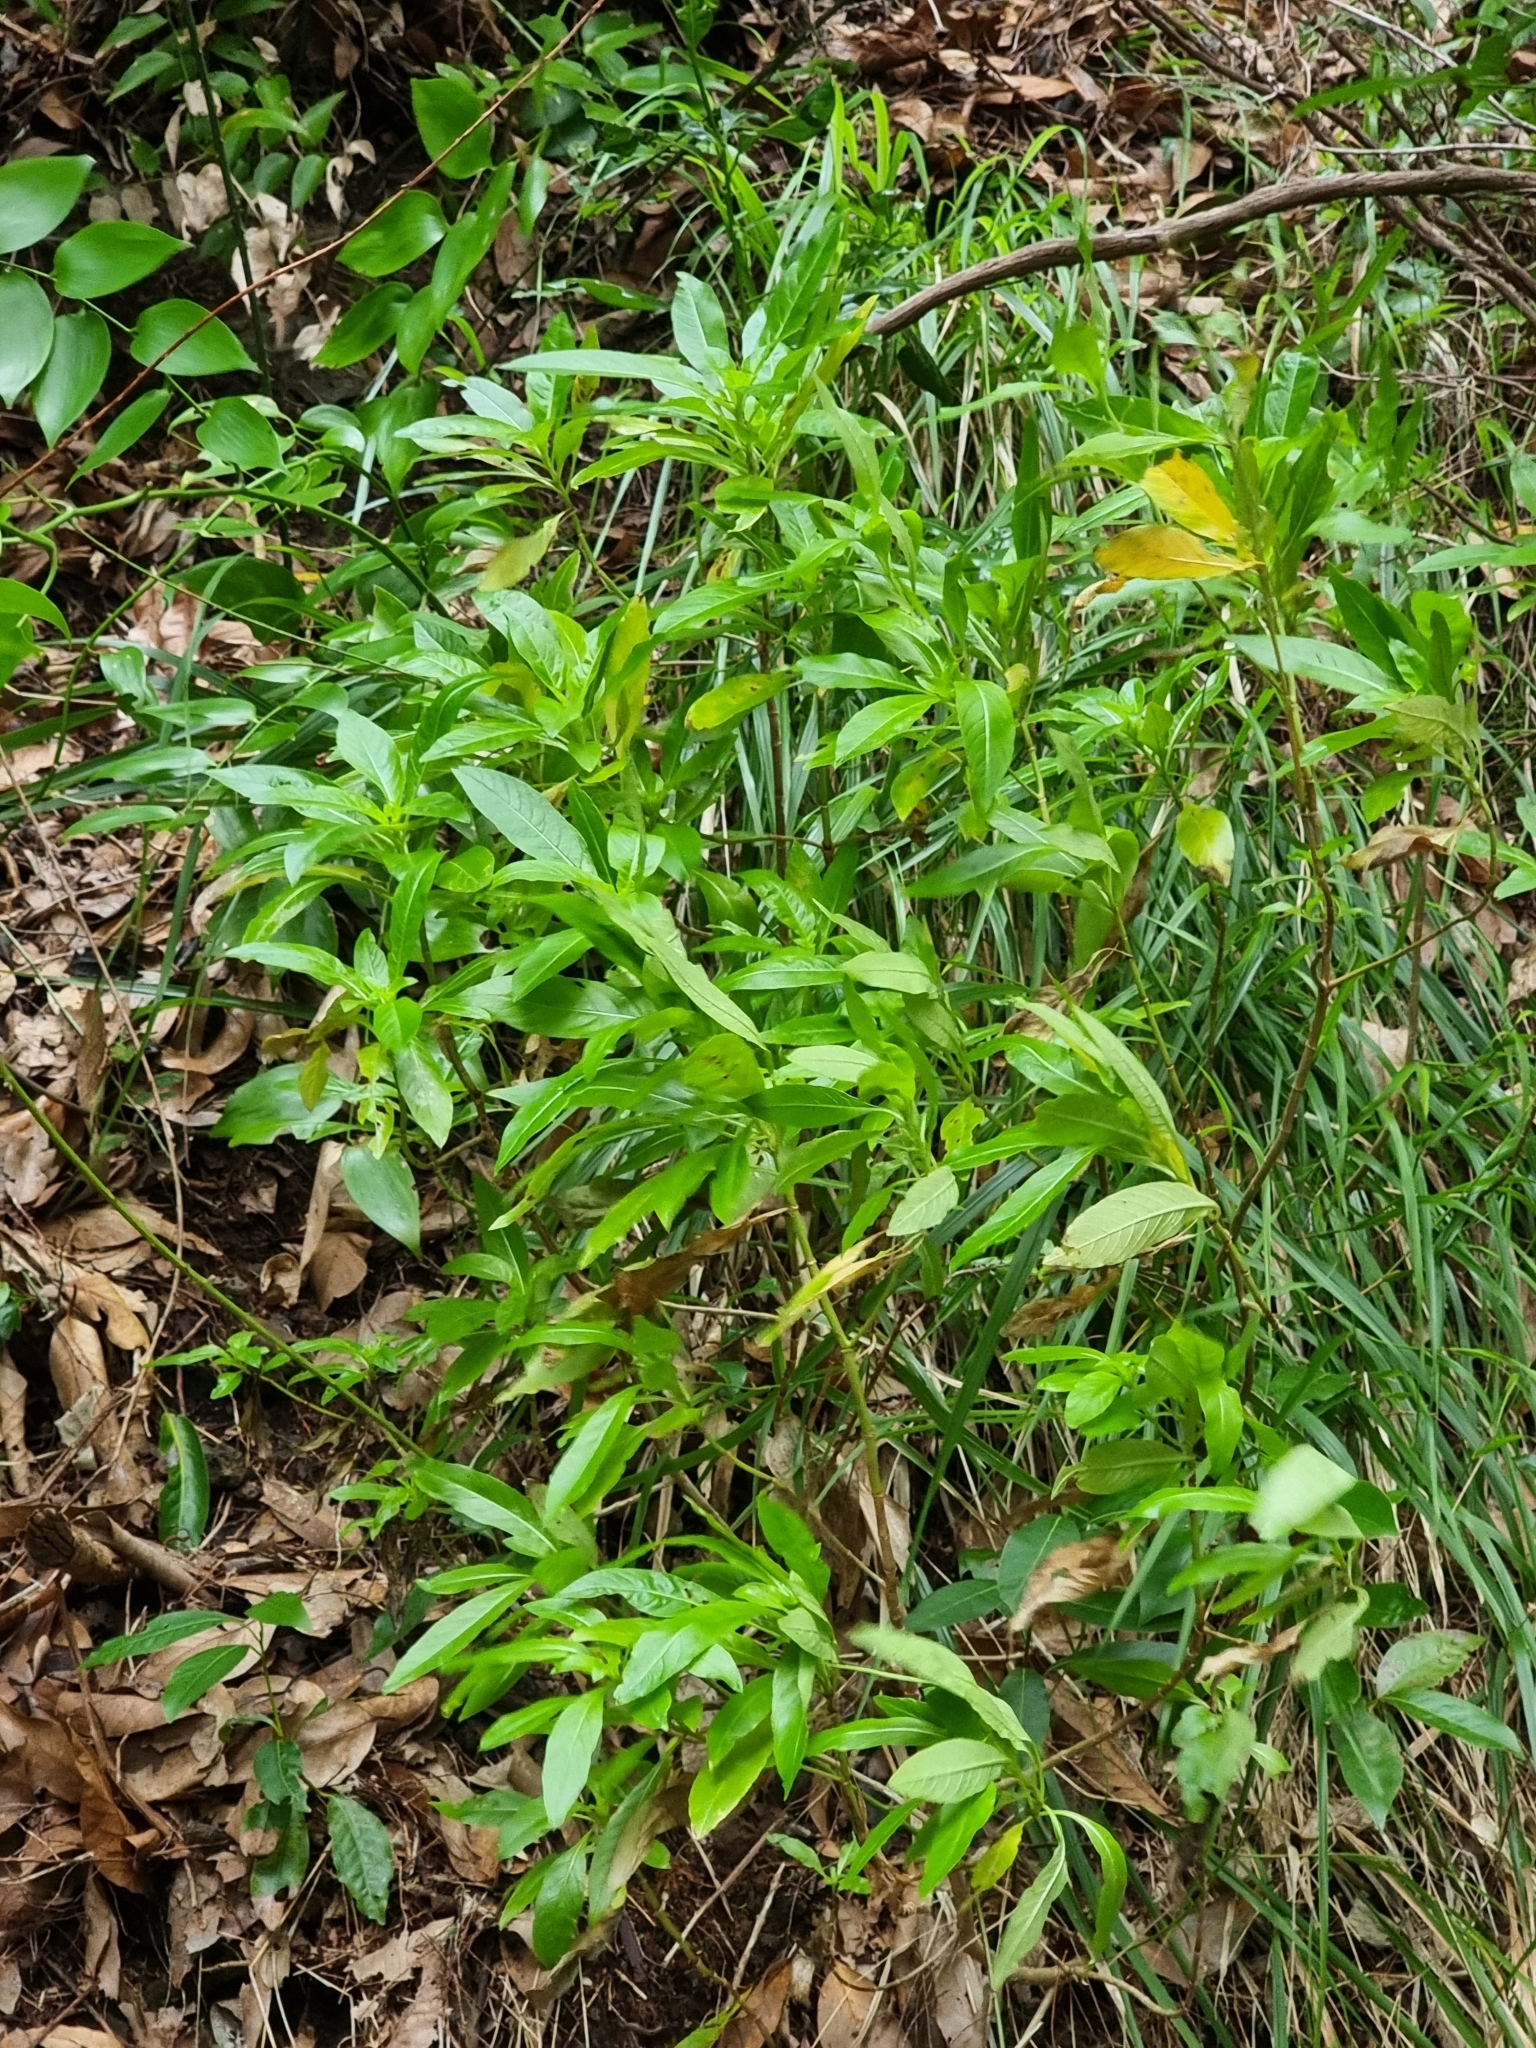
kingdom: Plantae
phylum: Tracheophyta
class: Magnoliopsida
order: Gentianales
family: Rubiaceae
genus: Phyllis
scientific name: Phyllis nobla
